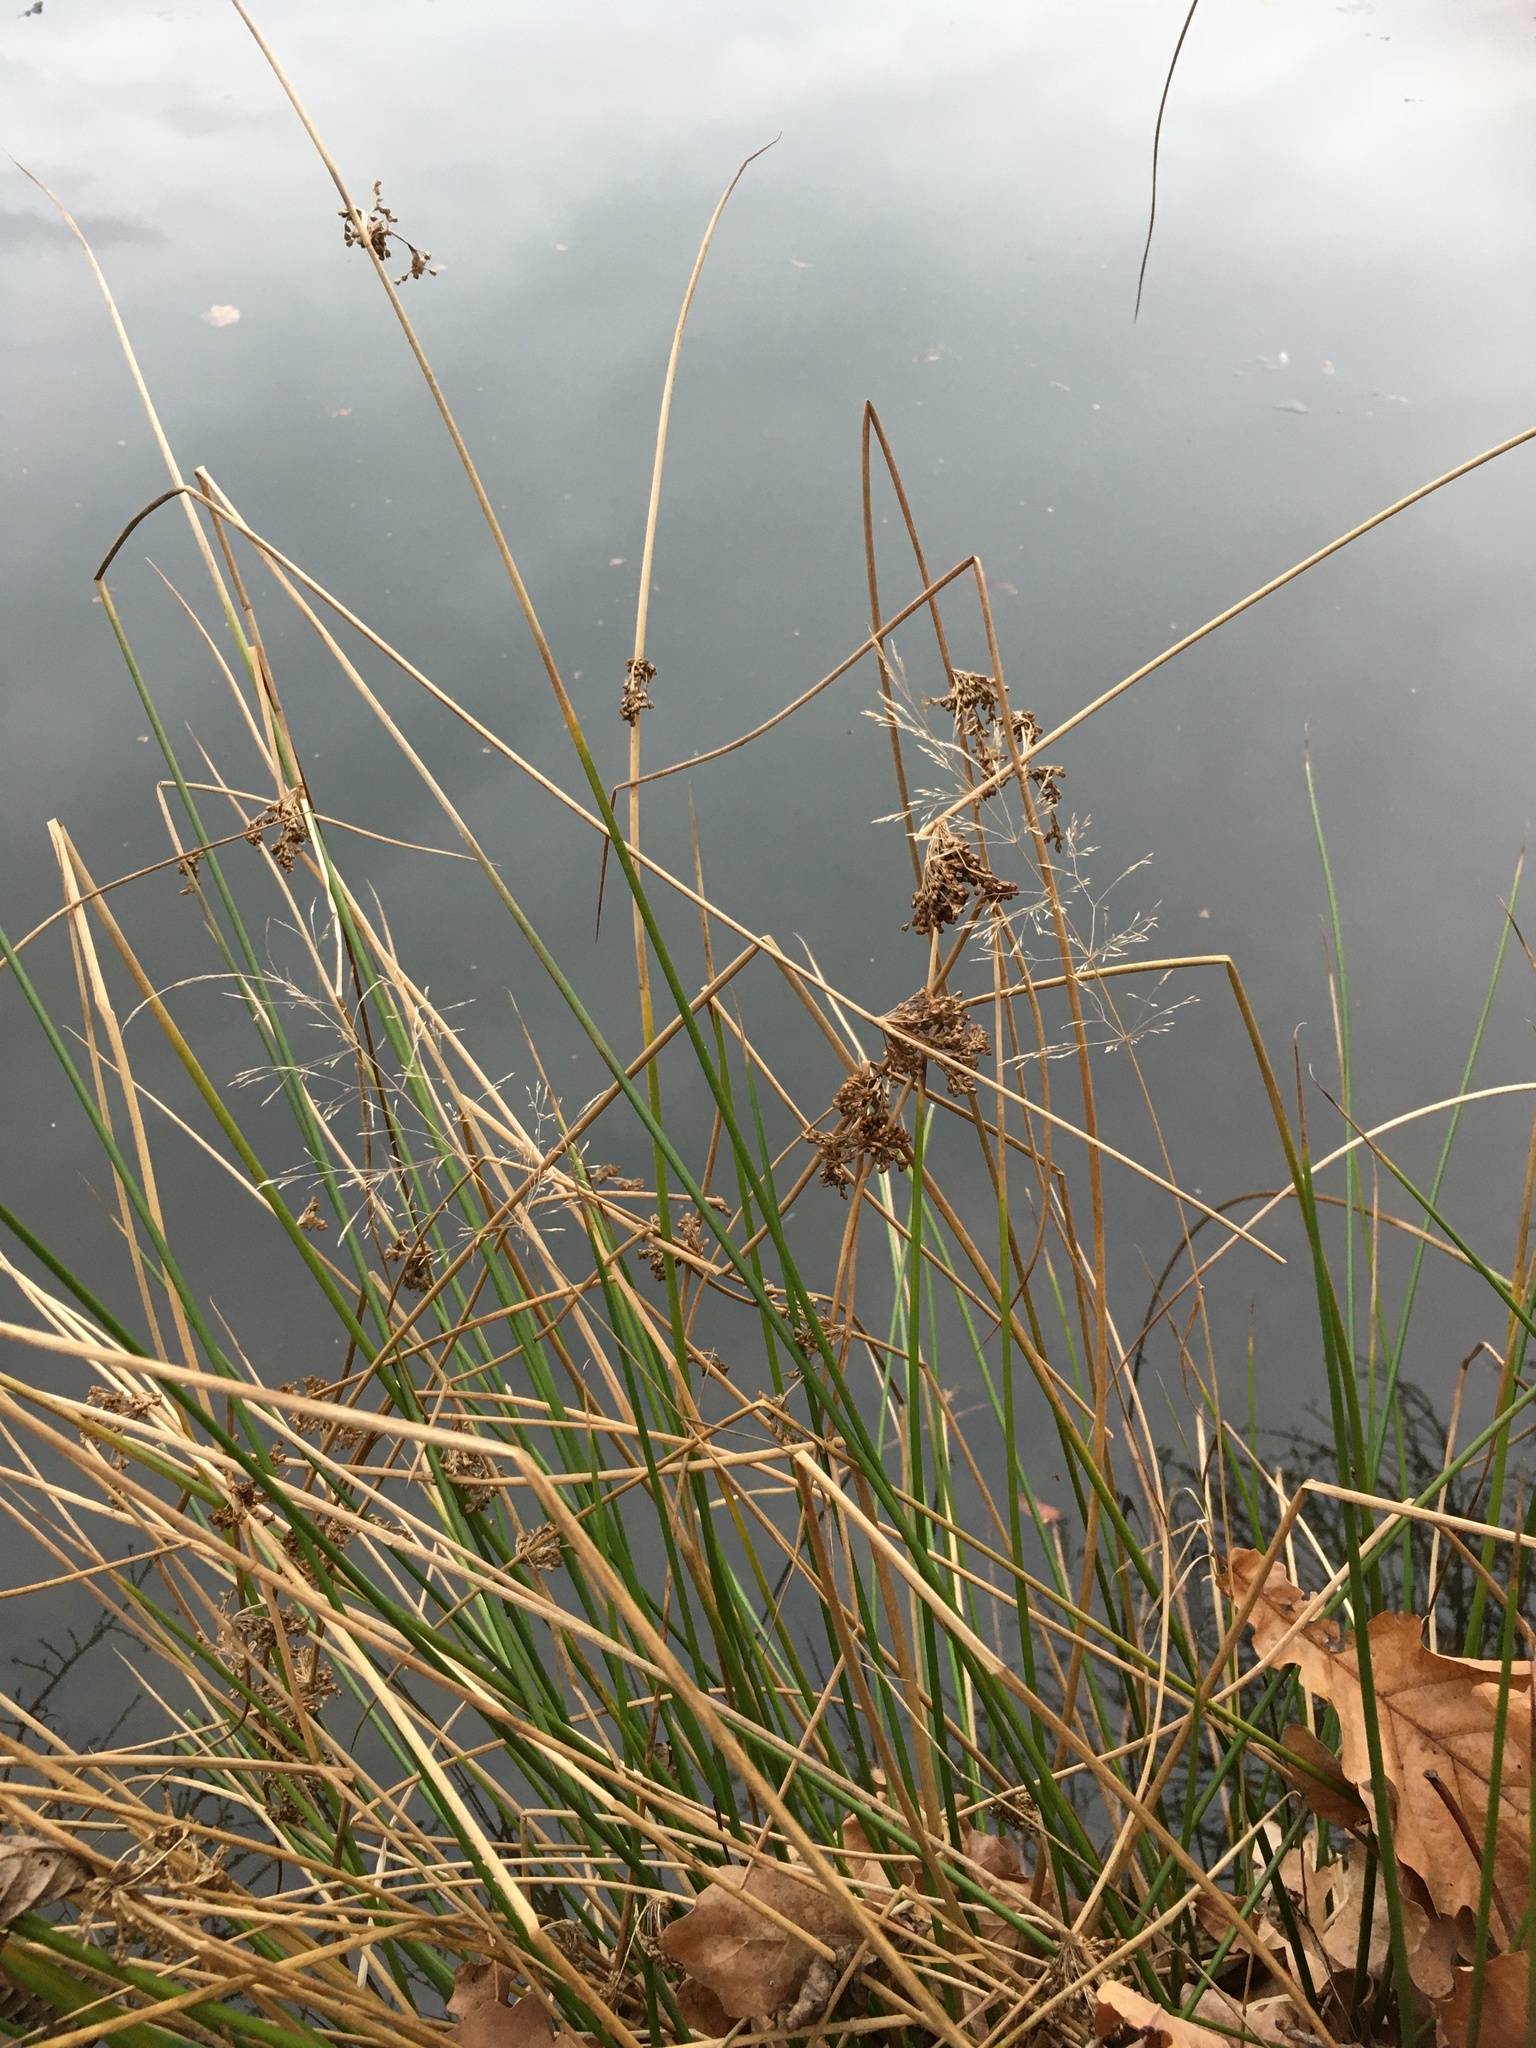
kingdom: Plantae
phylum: Tracheophyta
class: Liliopsida
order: Poales
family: Juncaceae
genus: Juncus
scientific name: Juncus effusus
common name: Soft rush
